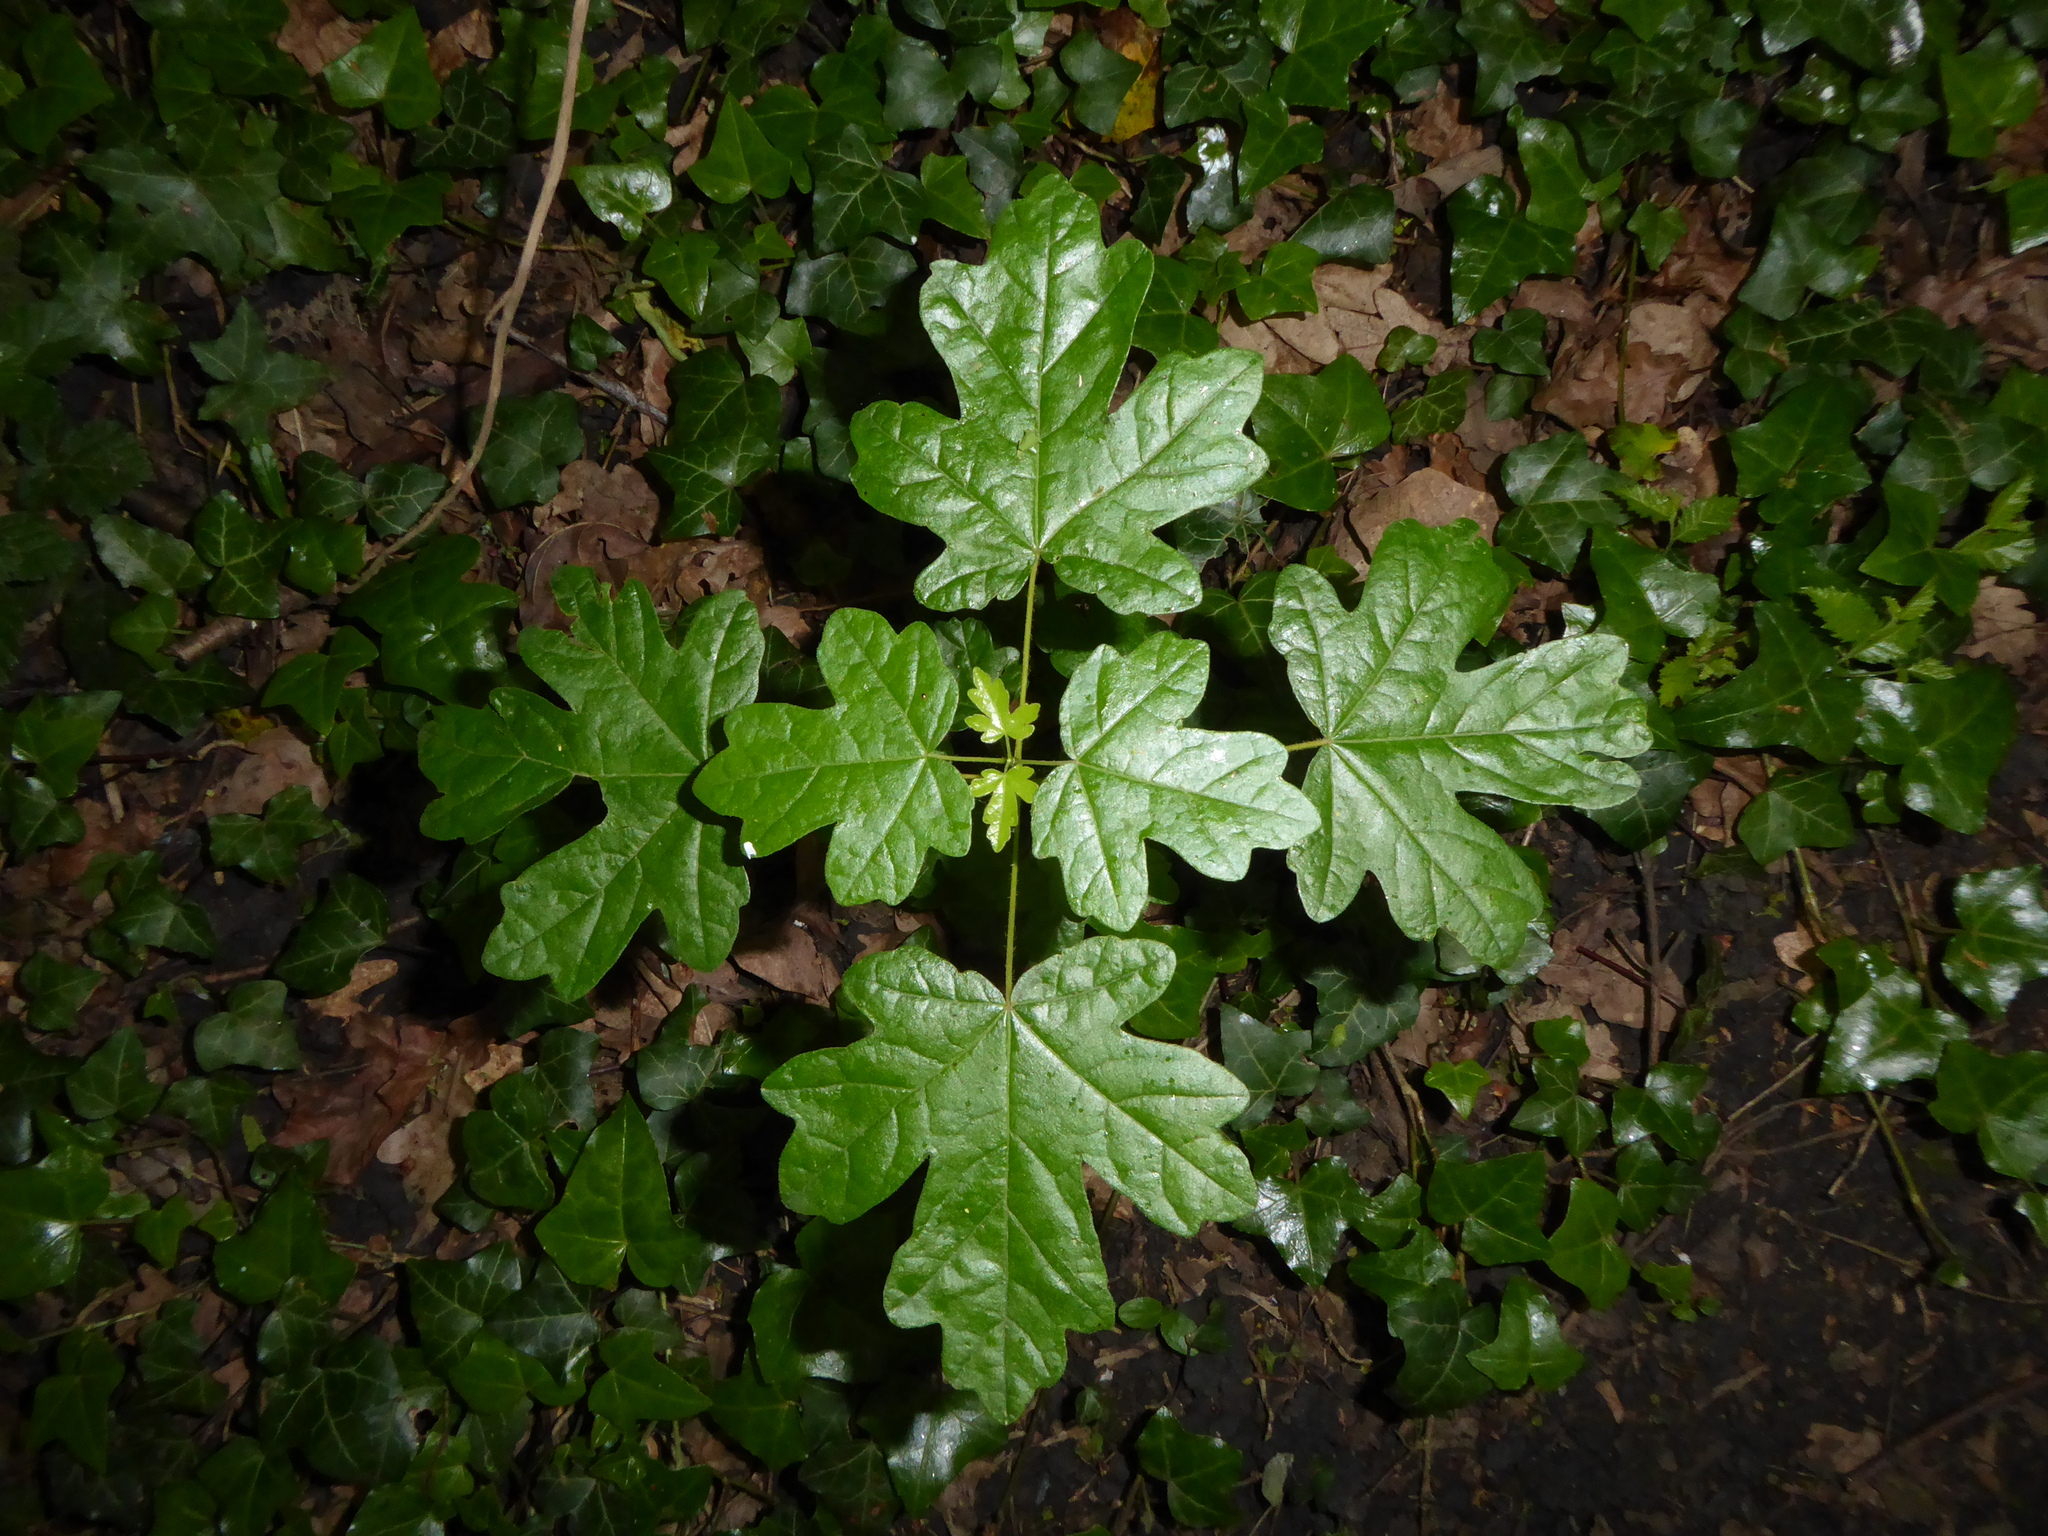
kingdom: Plantae
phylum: Tracheophyta
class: Magnoliopsida
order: Sapindales
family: Sapindaceae
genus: Acer
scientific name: Acer campestre
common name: Field maple
